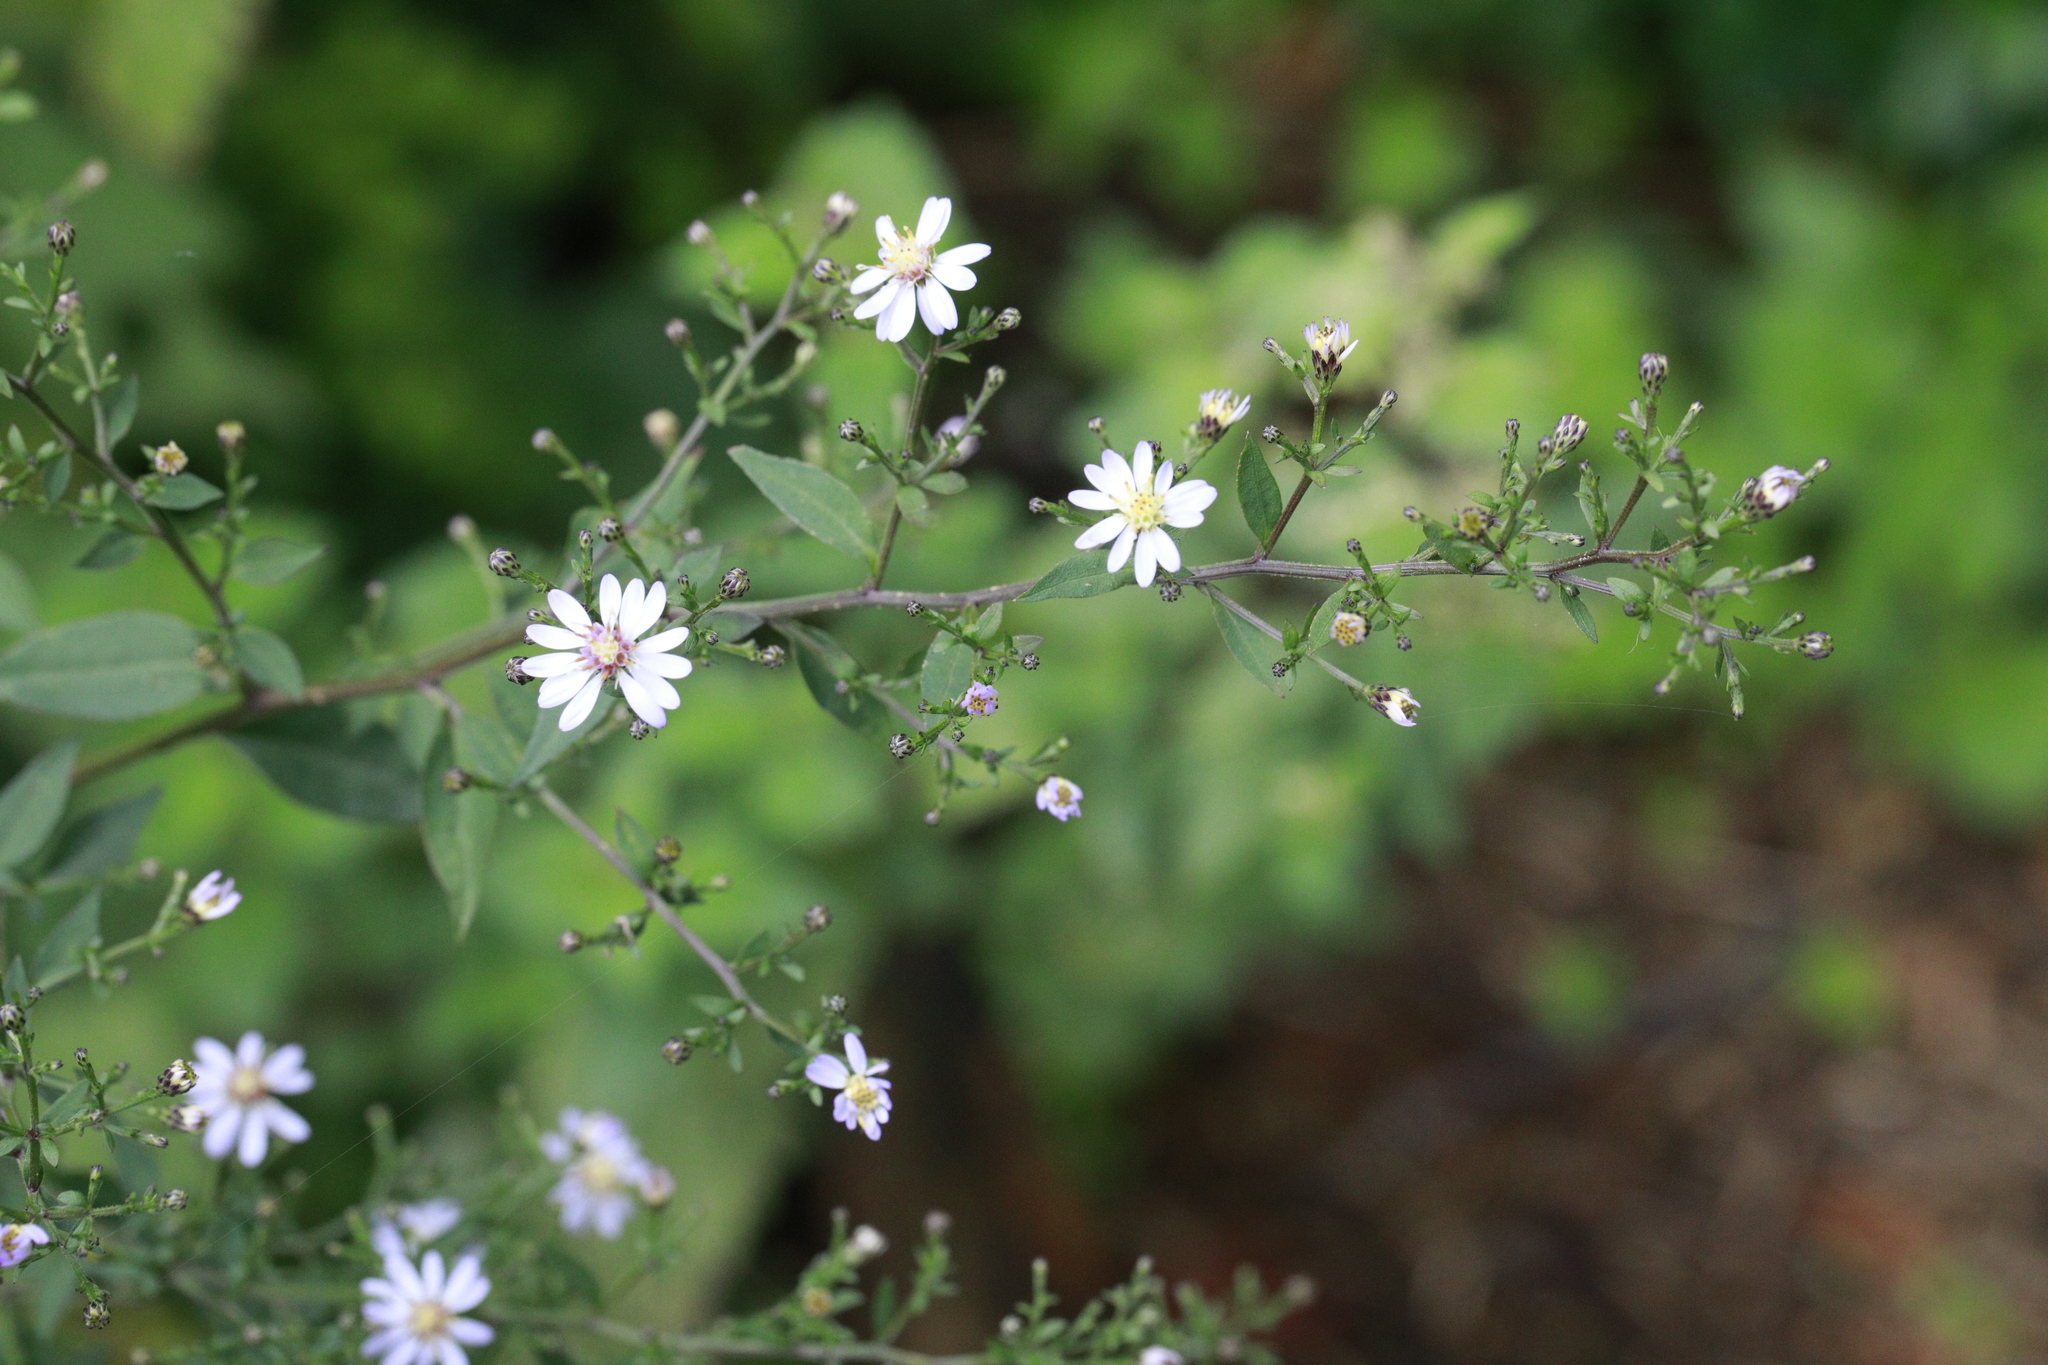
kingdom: Plantae
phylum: Tracheophyta
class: Magnoliopsida
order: Asterales
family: Asteraceae
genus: Symphyotrichum
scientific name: Symphyotrichum
